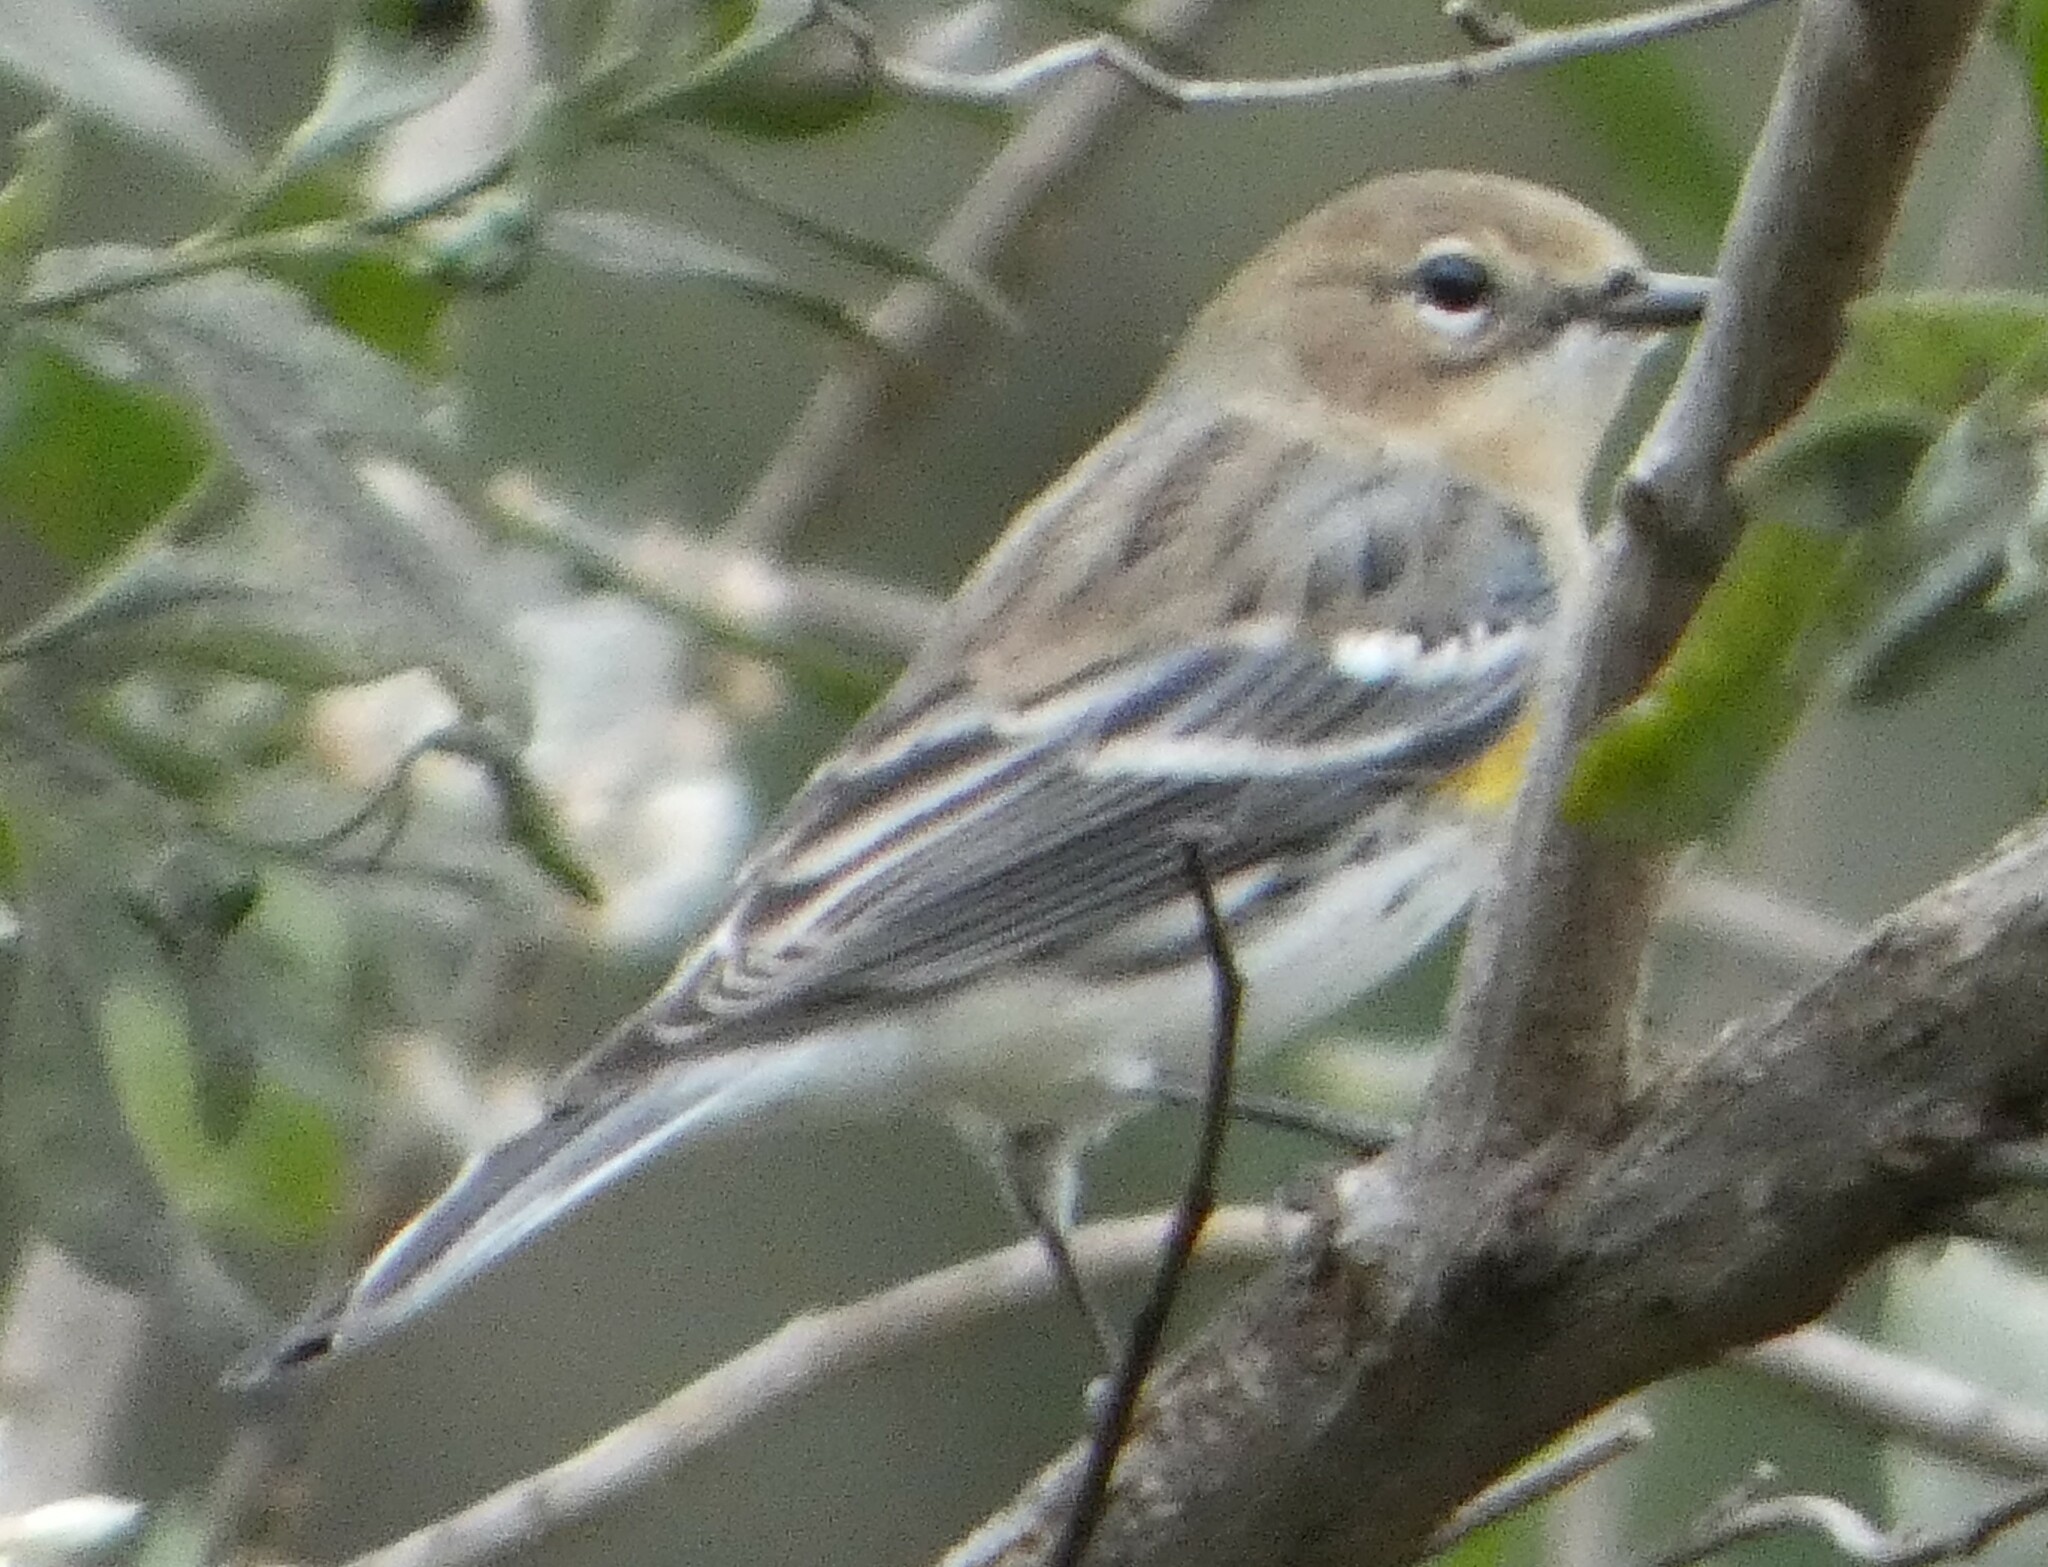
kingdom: Animalia
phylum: Chordata
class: Aves
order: Passeriformes
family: Parulidae
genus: Setophaga
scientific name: Setophaga coronata
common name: Myrtle warbler
